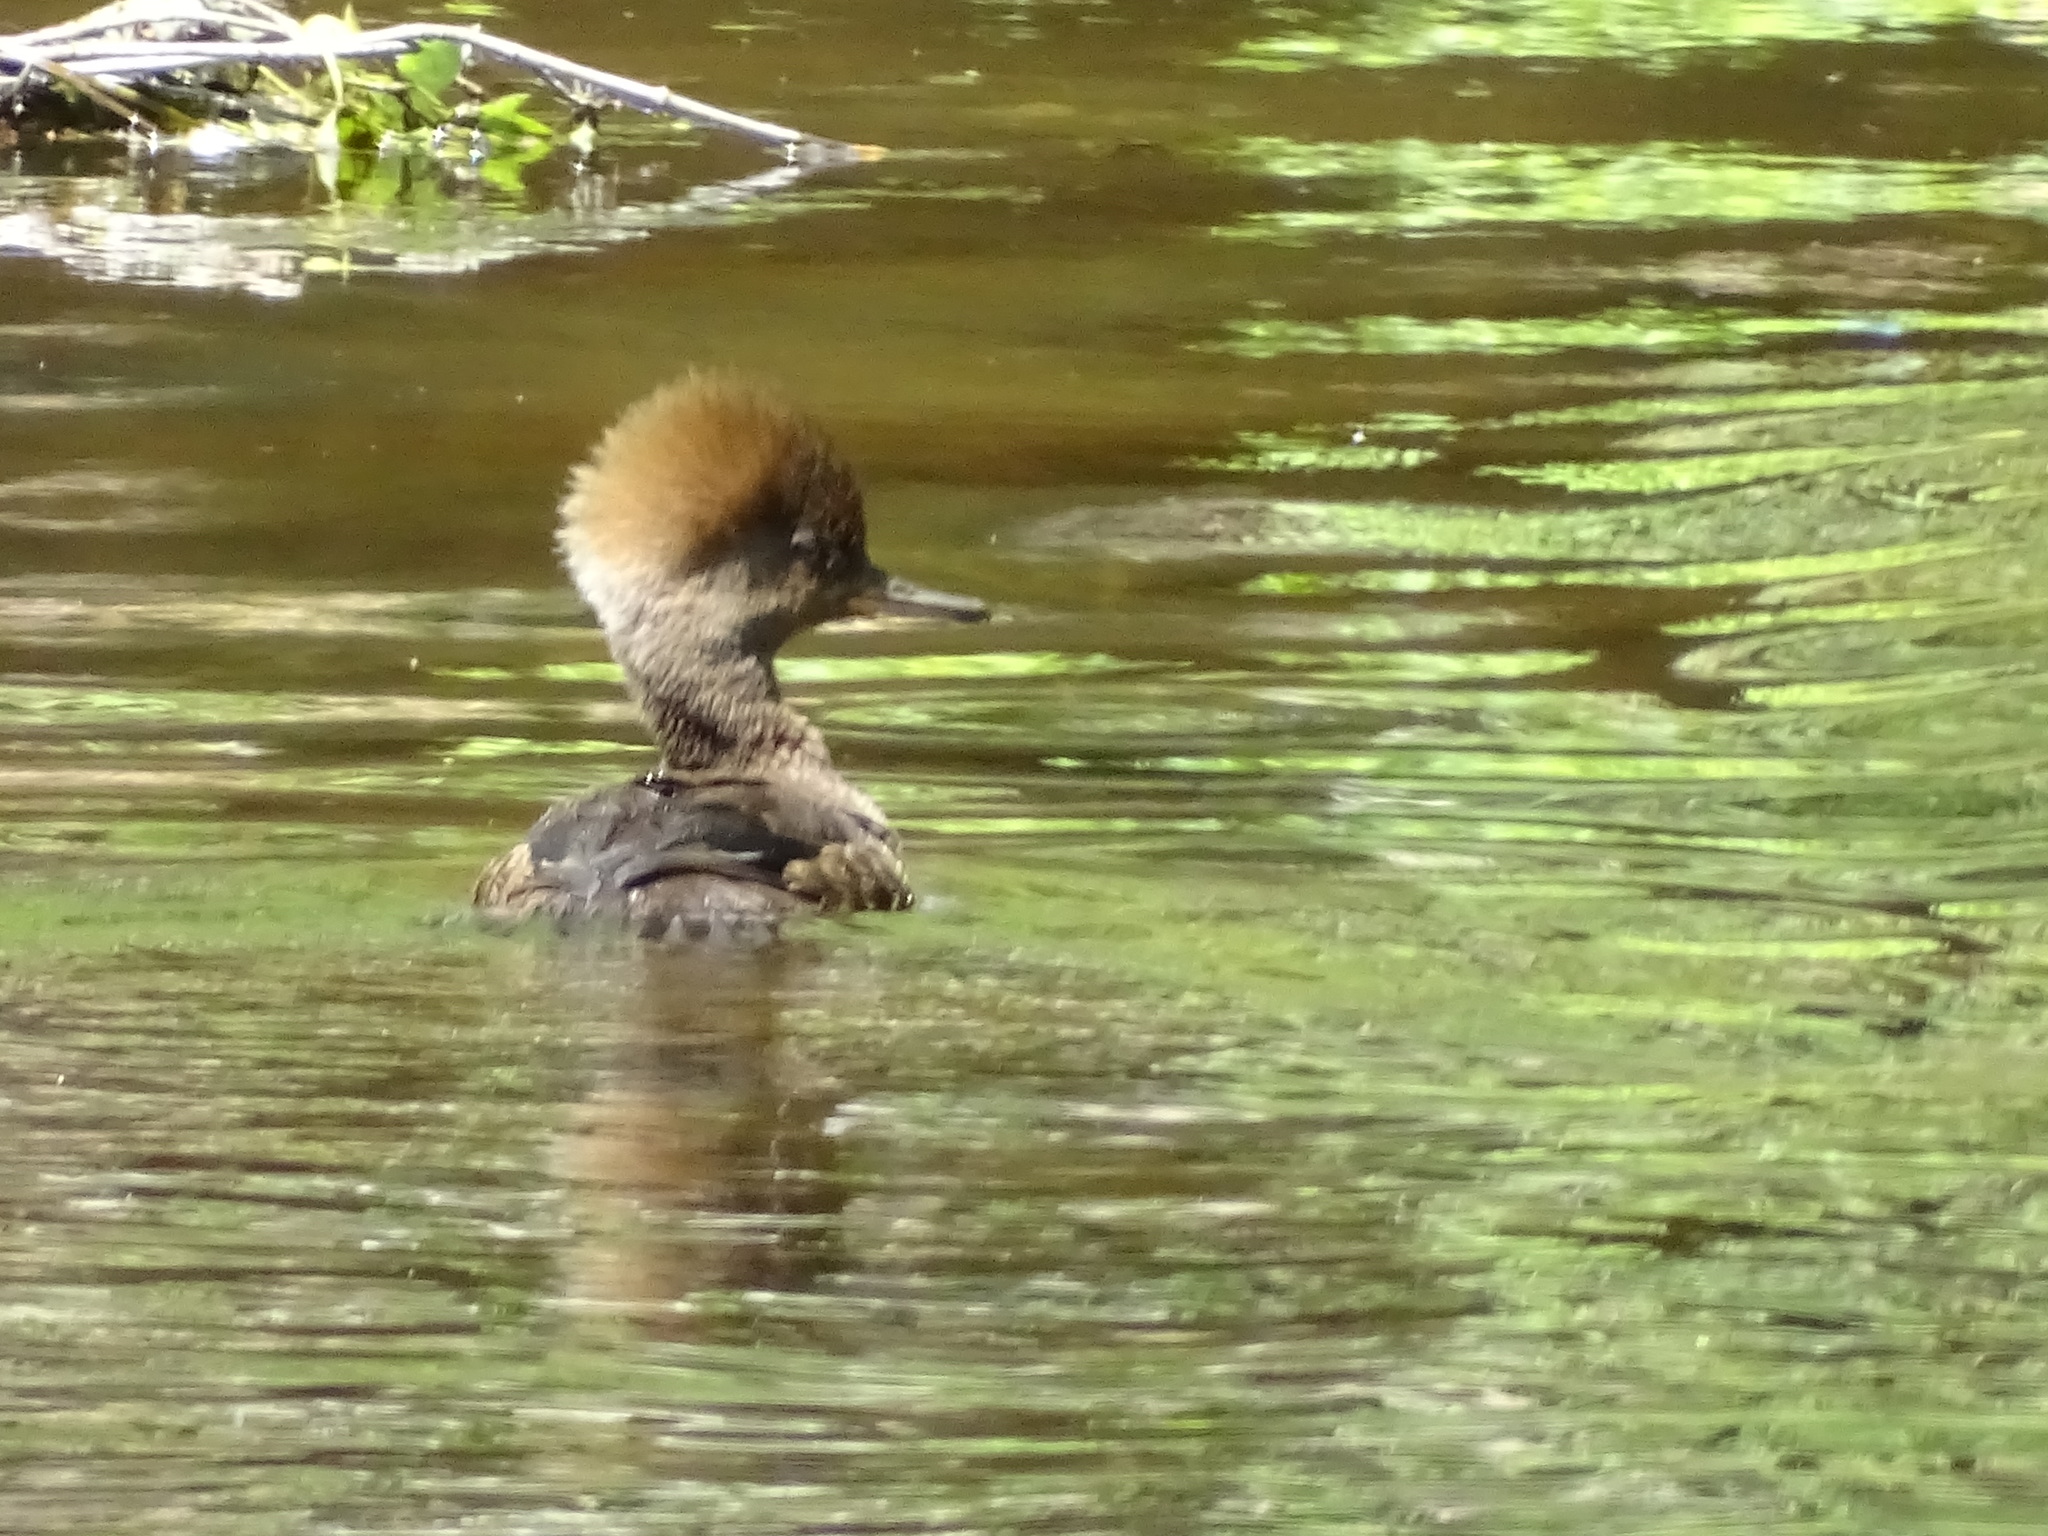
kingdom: Animalia
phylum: Chordata
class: Aves
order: Anseriformes
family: Anatidae
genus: Lophodytes
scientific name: Lophodytes cucullatus
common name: Hooded merganser
